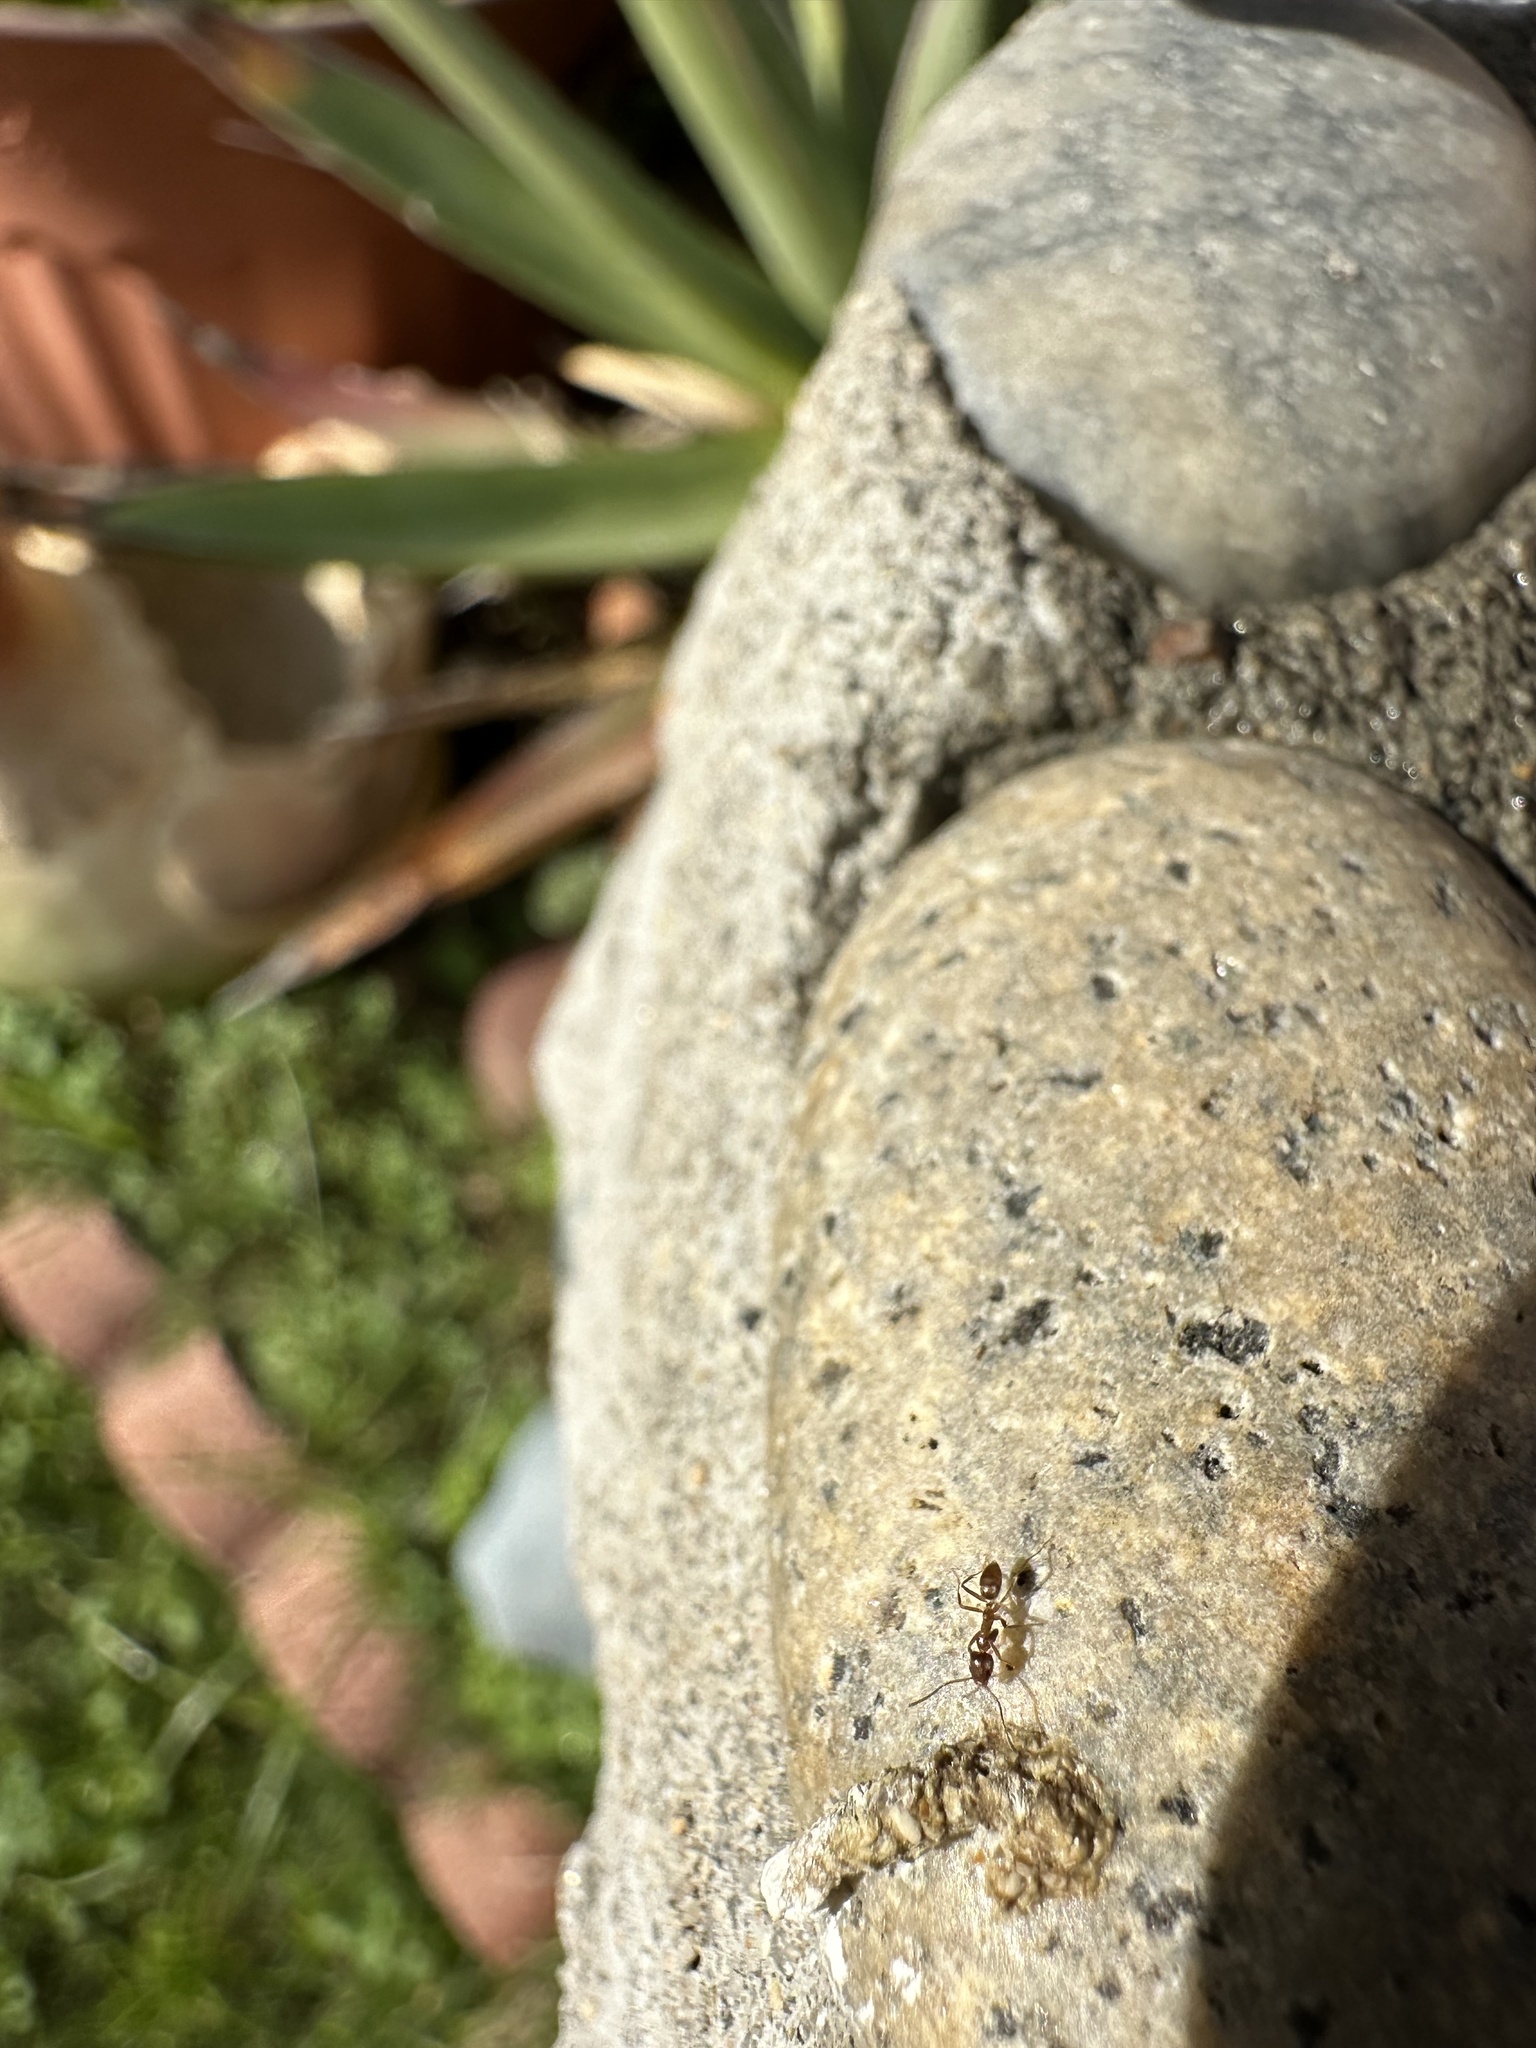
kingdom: Animalia
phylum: Arthropoda
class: Insecta
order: Hymenoptera
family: Formicidae
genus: Linepithema
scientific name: Linepithema humile
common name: Argentine ant
